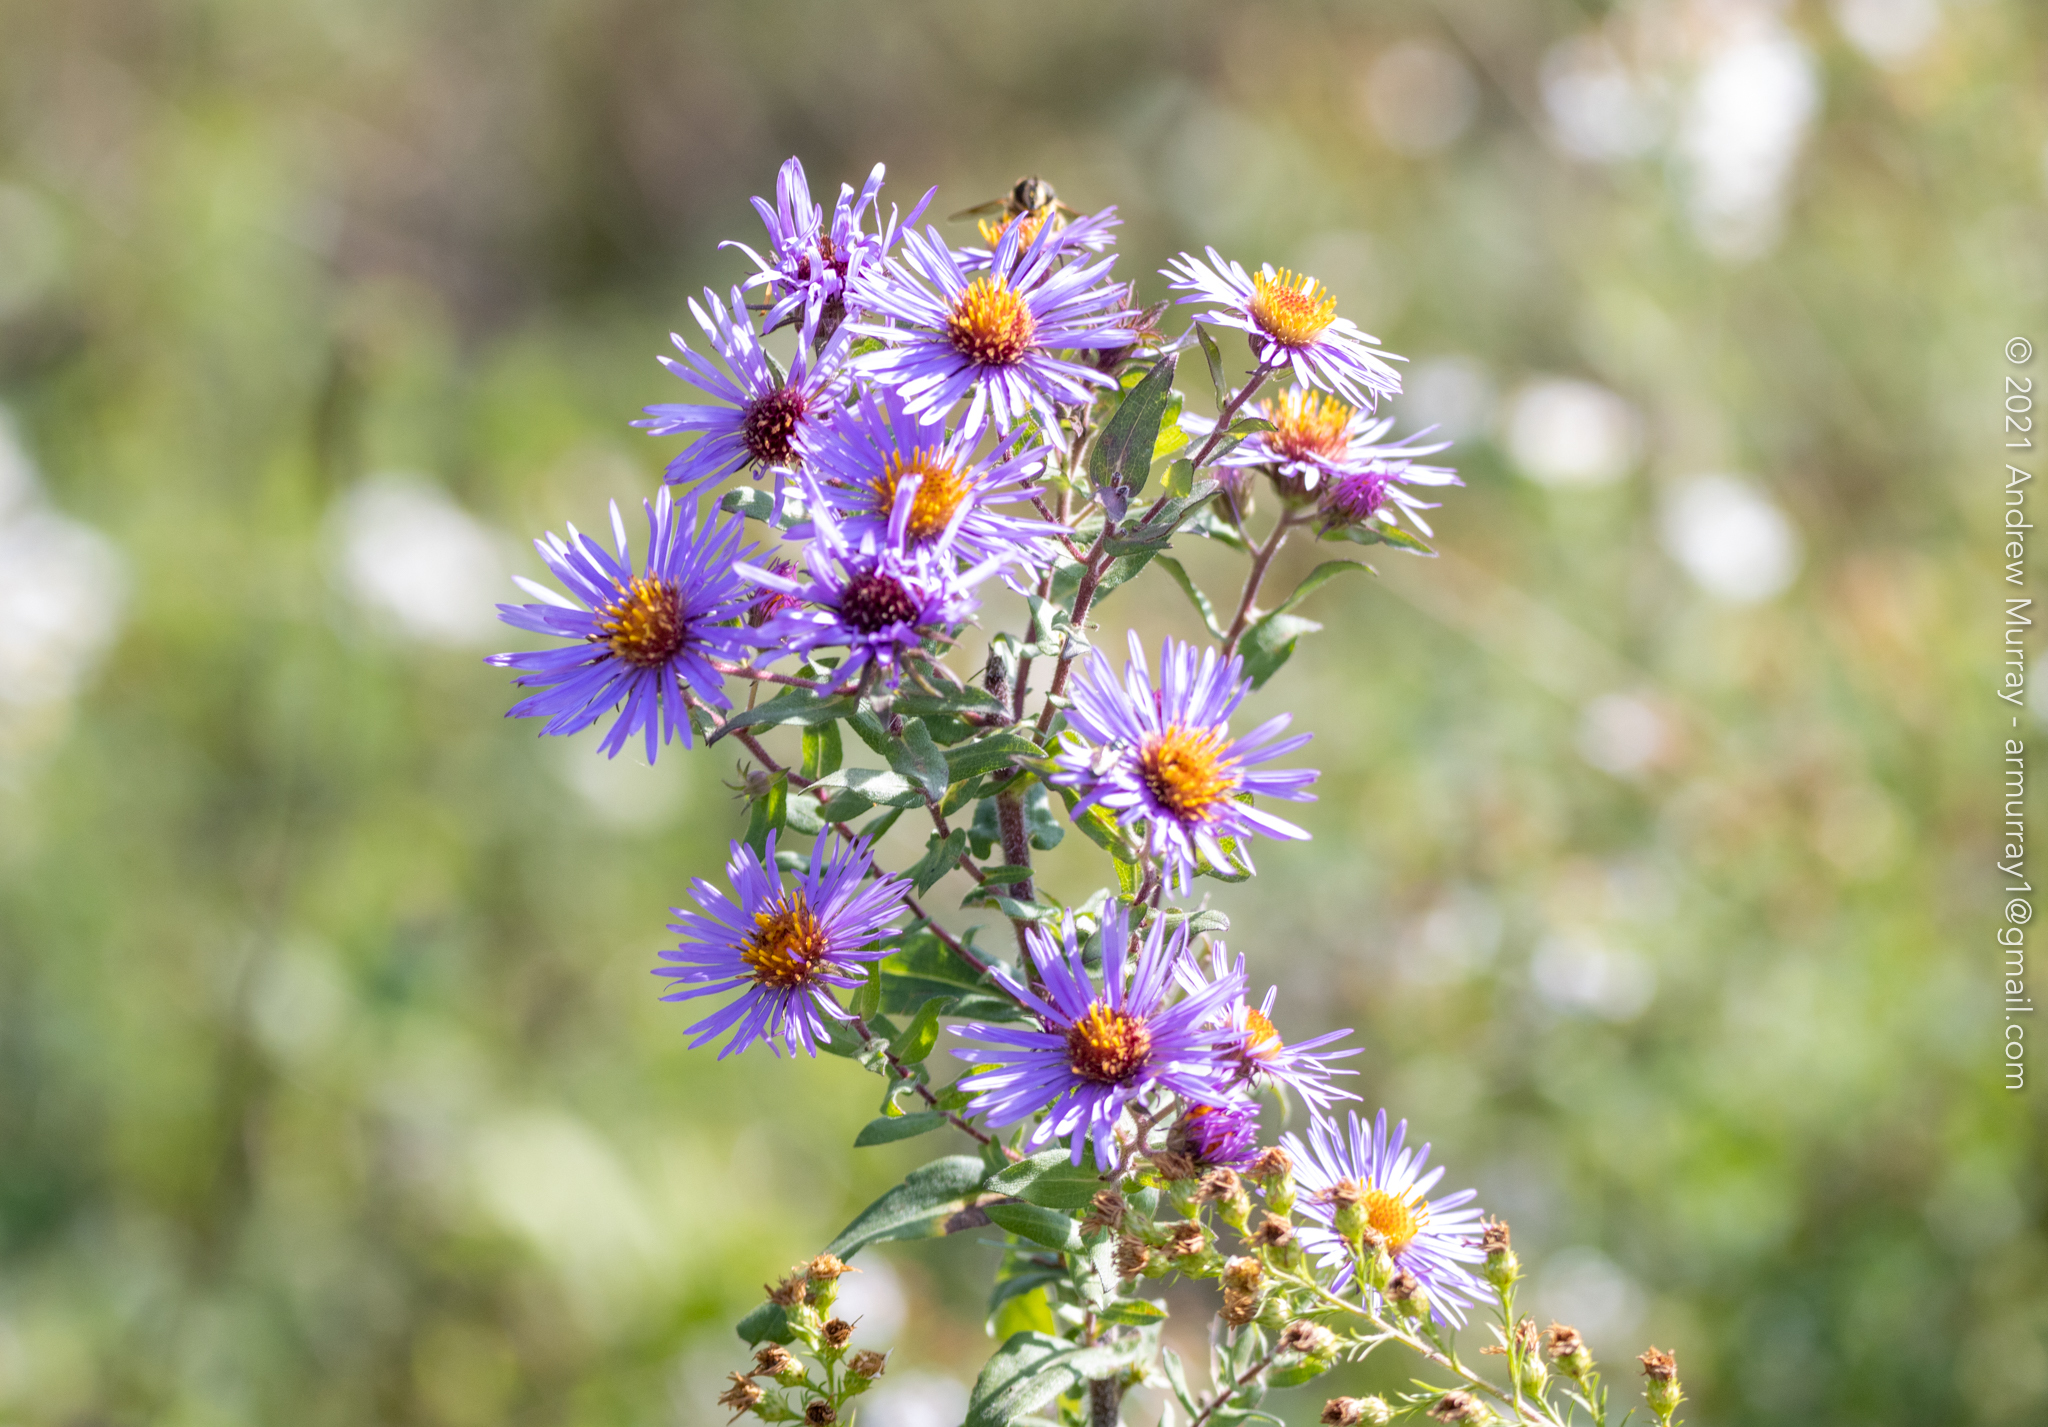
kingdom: Plantae
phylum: Tracheophyta
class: Magnoliopsida
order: Asterales
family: Asteraceae
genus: Symphyotrichum
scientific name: Symphyotrichum novae-angliae
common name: Michaelmas daisy
